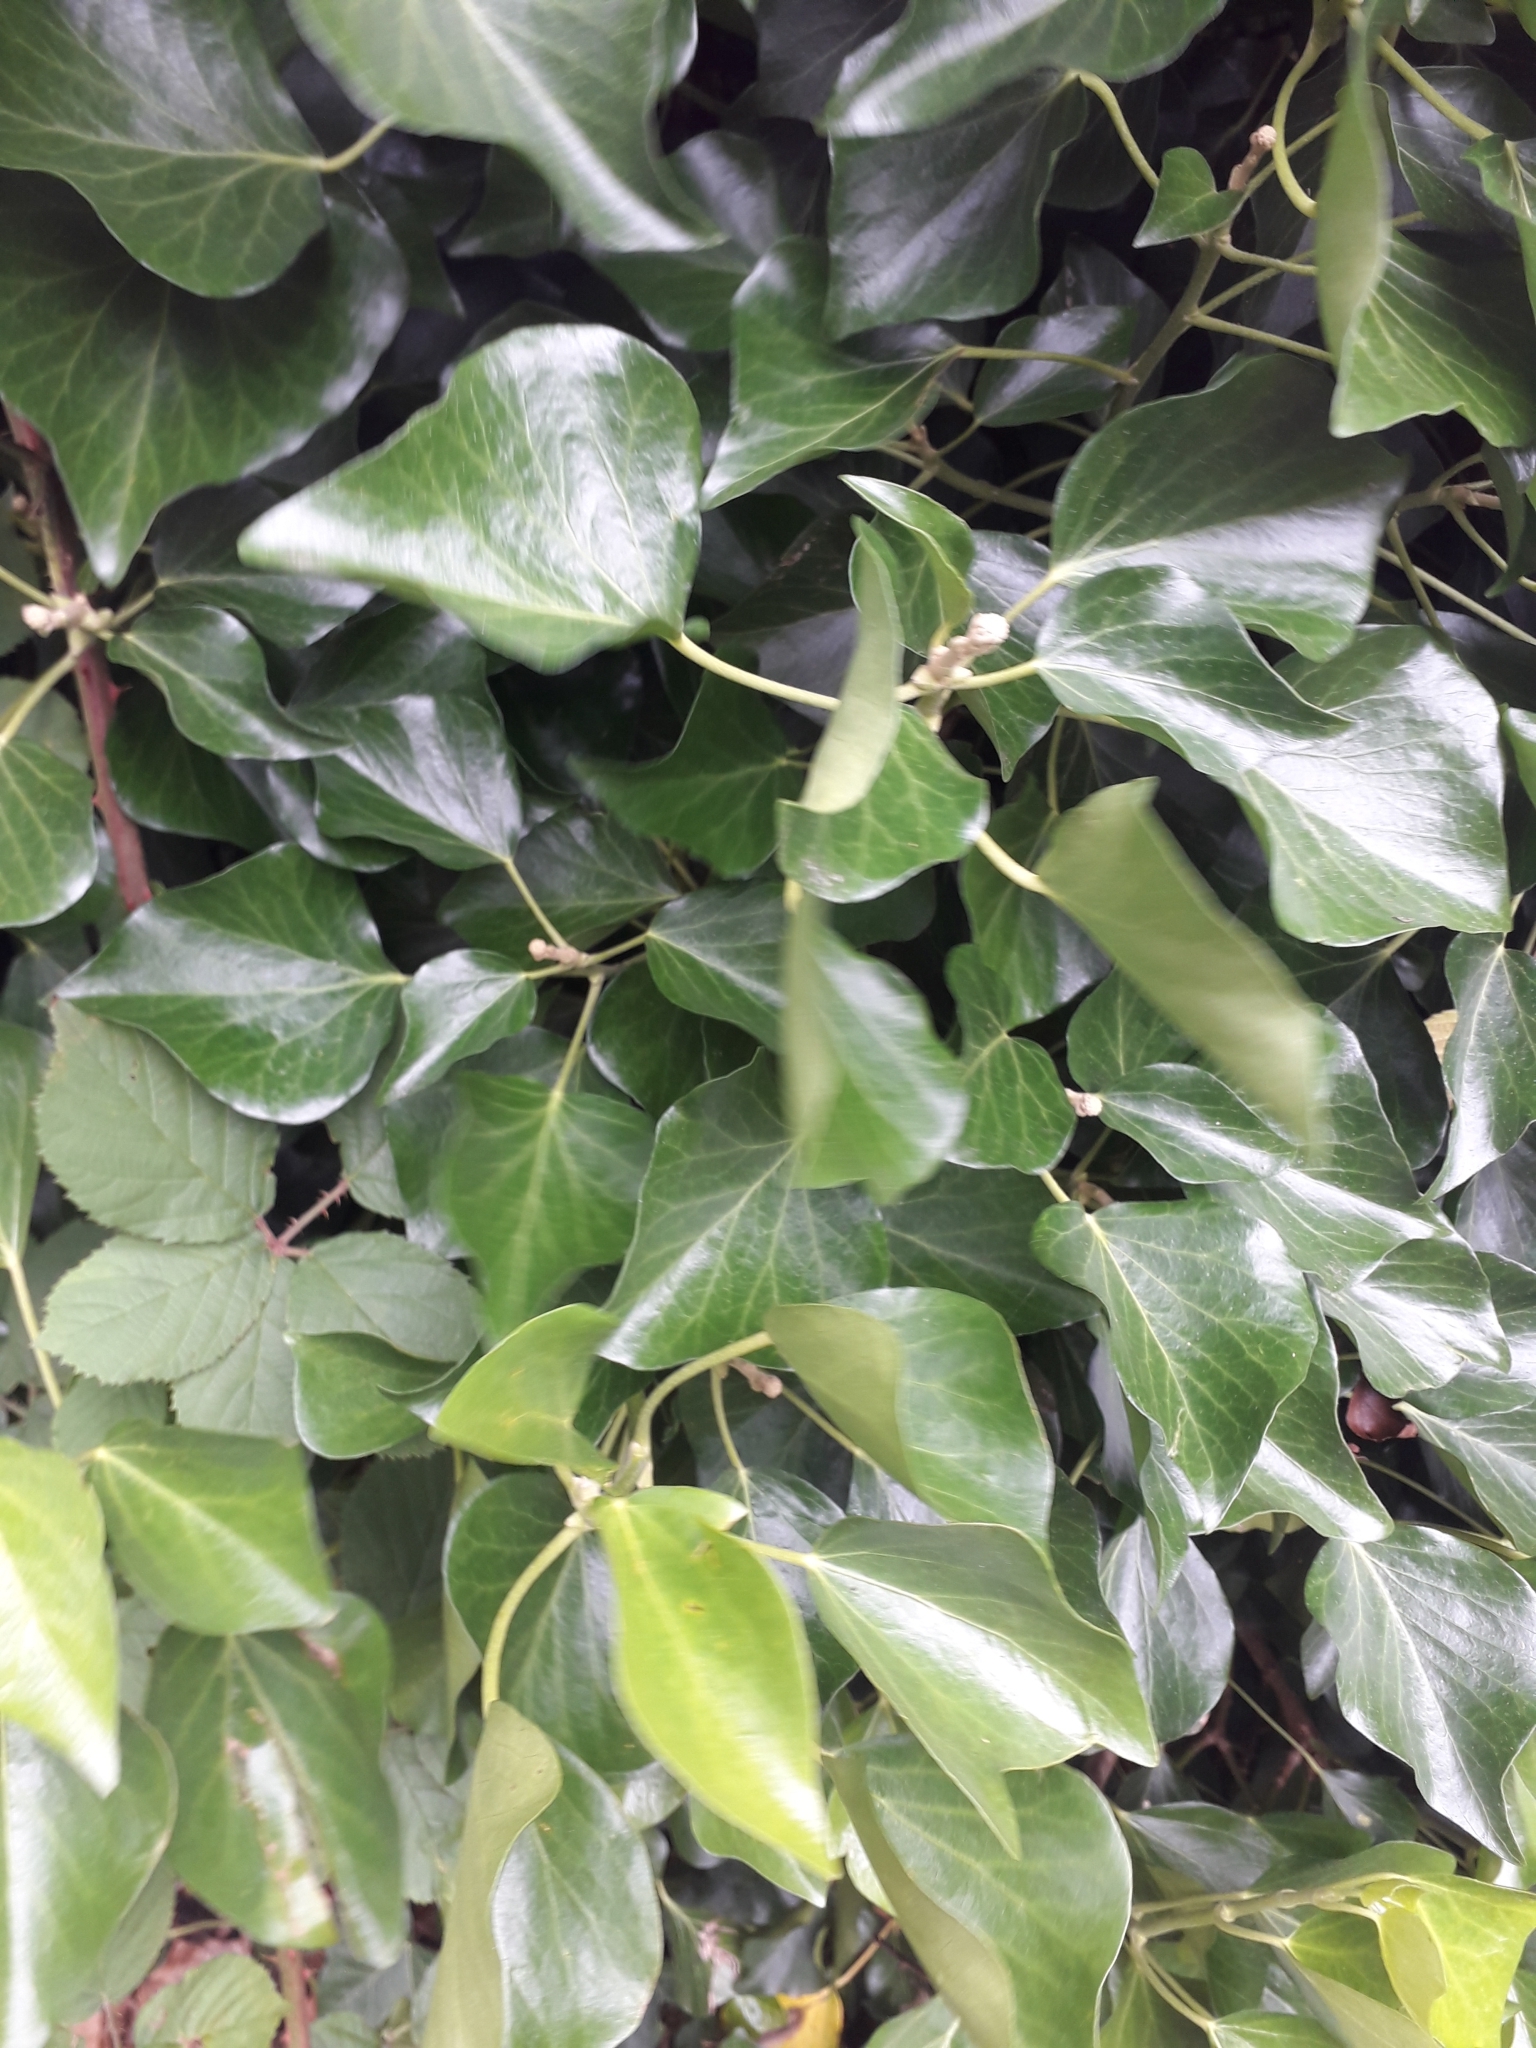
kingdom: Plantae
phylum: Tracheophyta
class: Magnoliopsida
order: Apiales
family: Araliaceae
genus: Hedera
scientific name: Hedera helix
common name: Ivy
